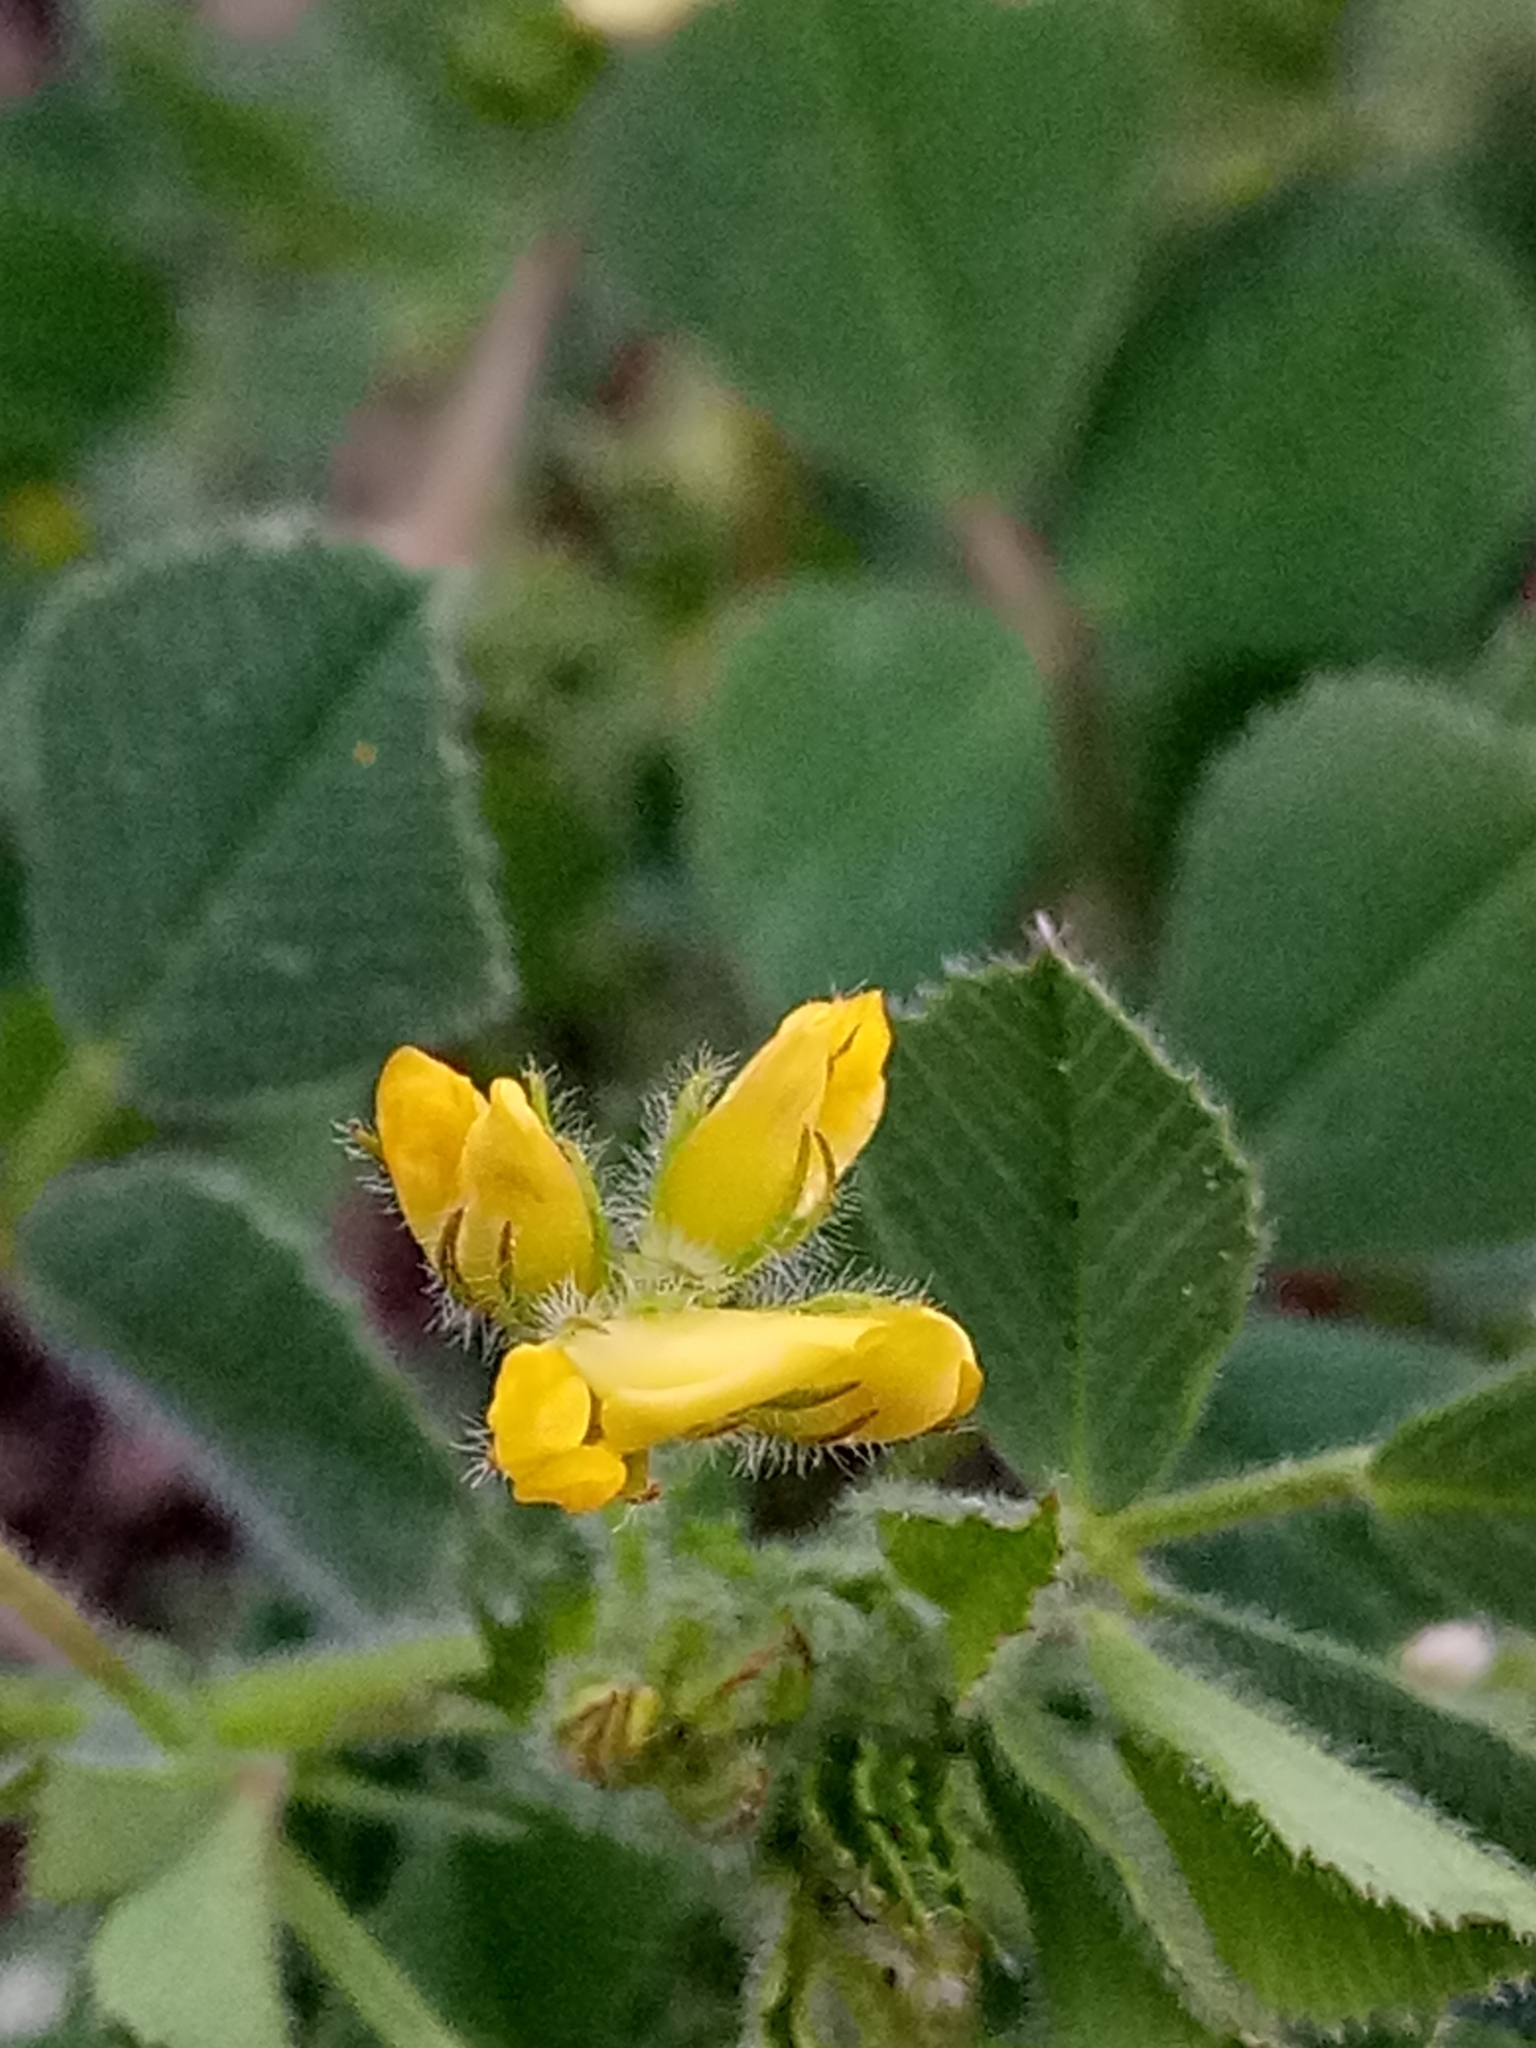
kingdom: Plantae
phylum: Tracheophyta
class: Magnoliopsida
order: Fabales
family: Fabaceae
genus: Medicago
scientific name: Medicago truncatula
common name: Strong-spined medick
